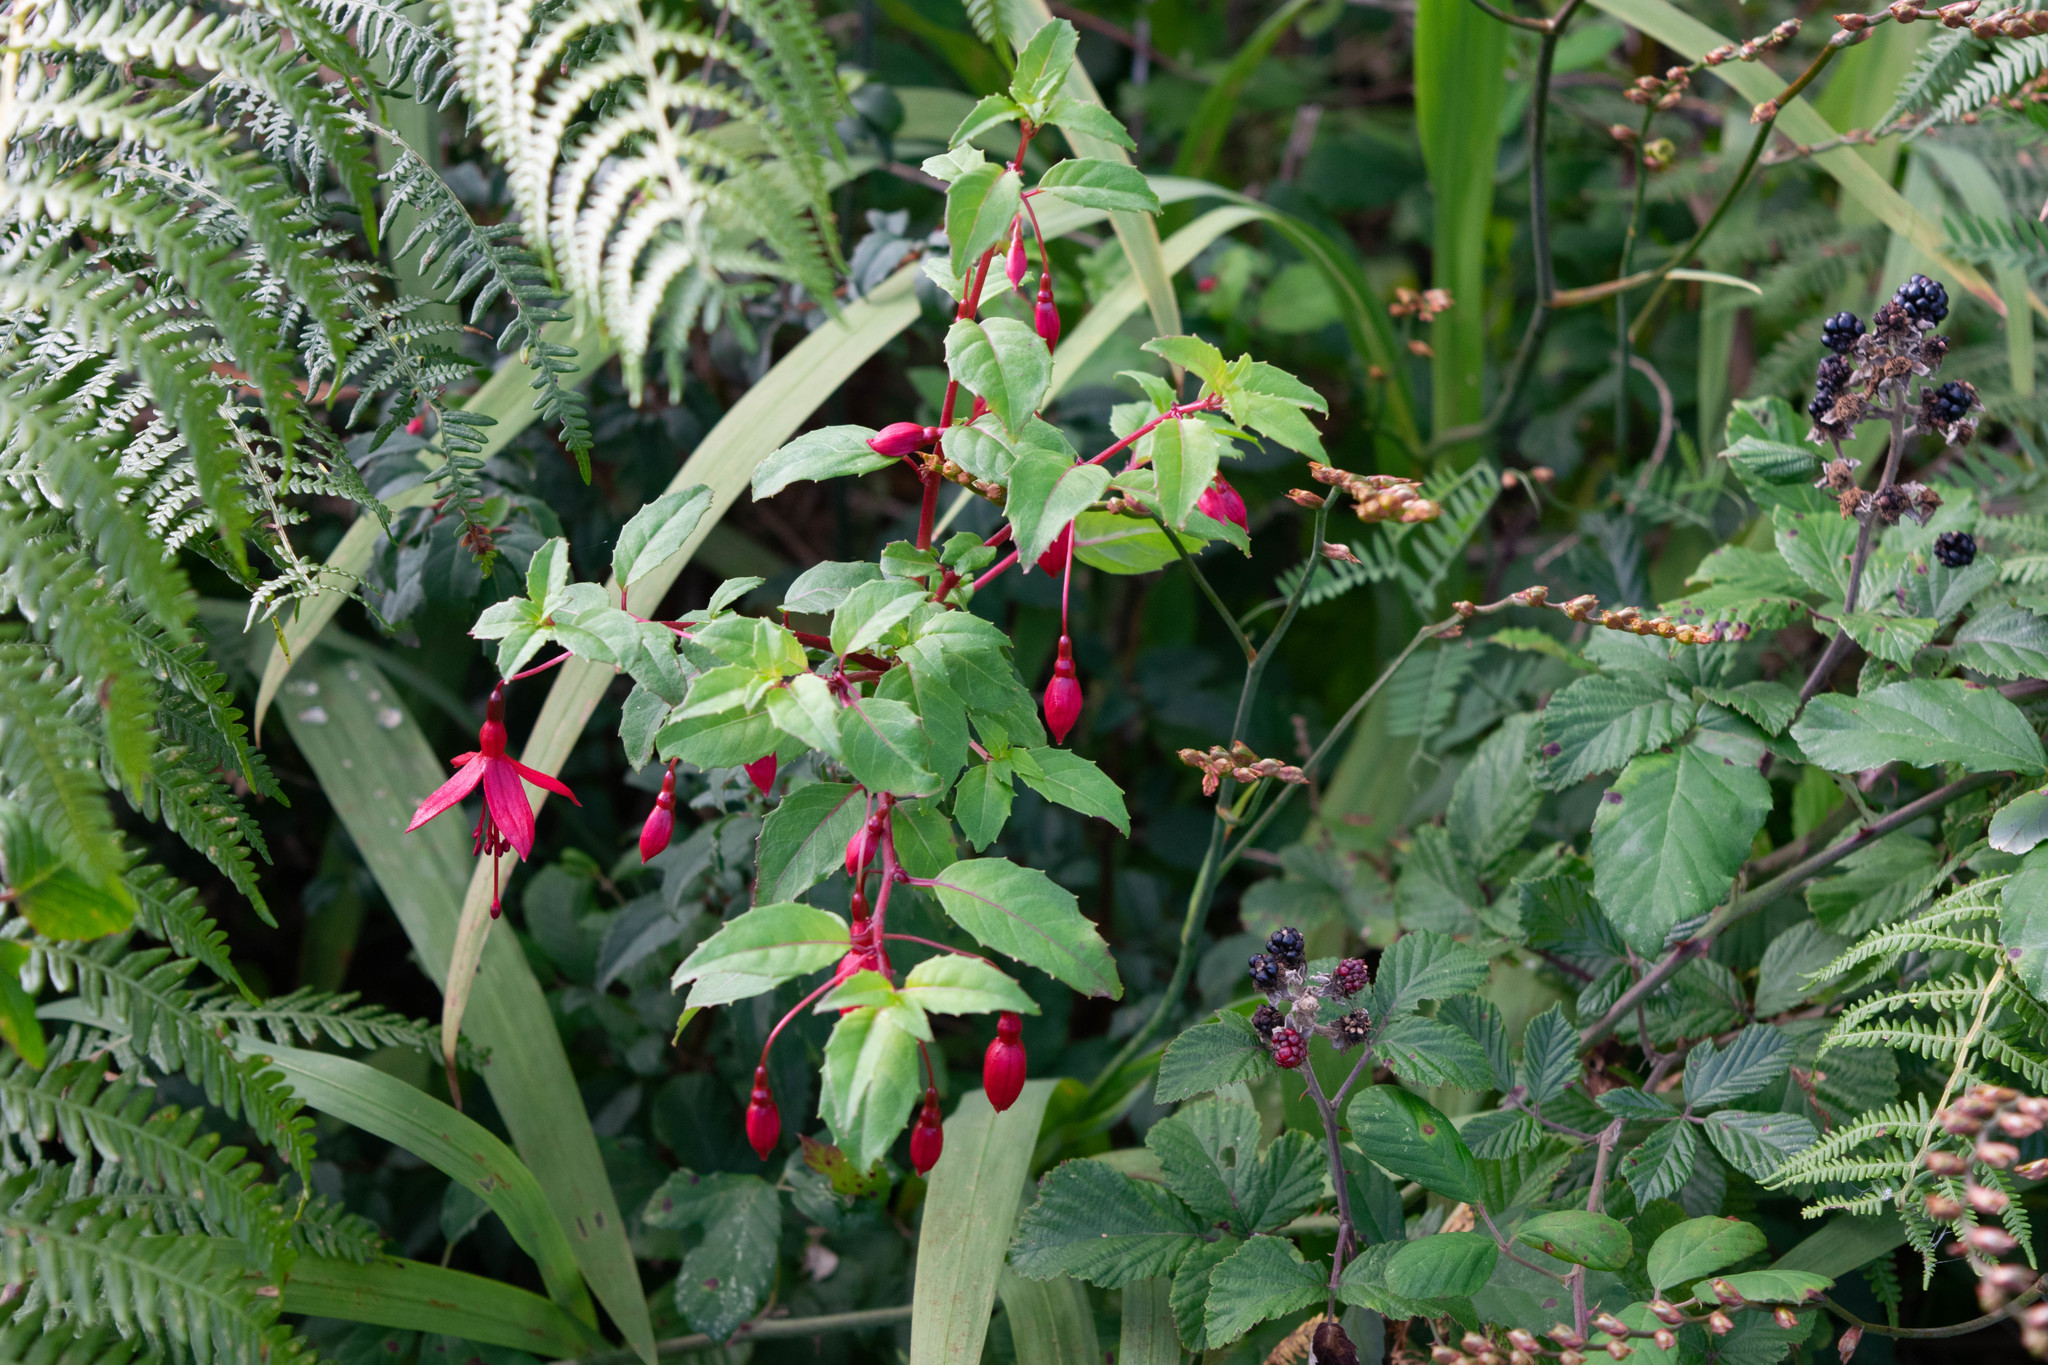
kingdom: Plantae
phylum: Tracheophyta
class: Magnoliopsida
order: Myrtales
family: Onagraceae
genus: Fuchsia
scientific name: Fuchsia magellanica
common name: Hardy fuchsia
